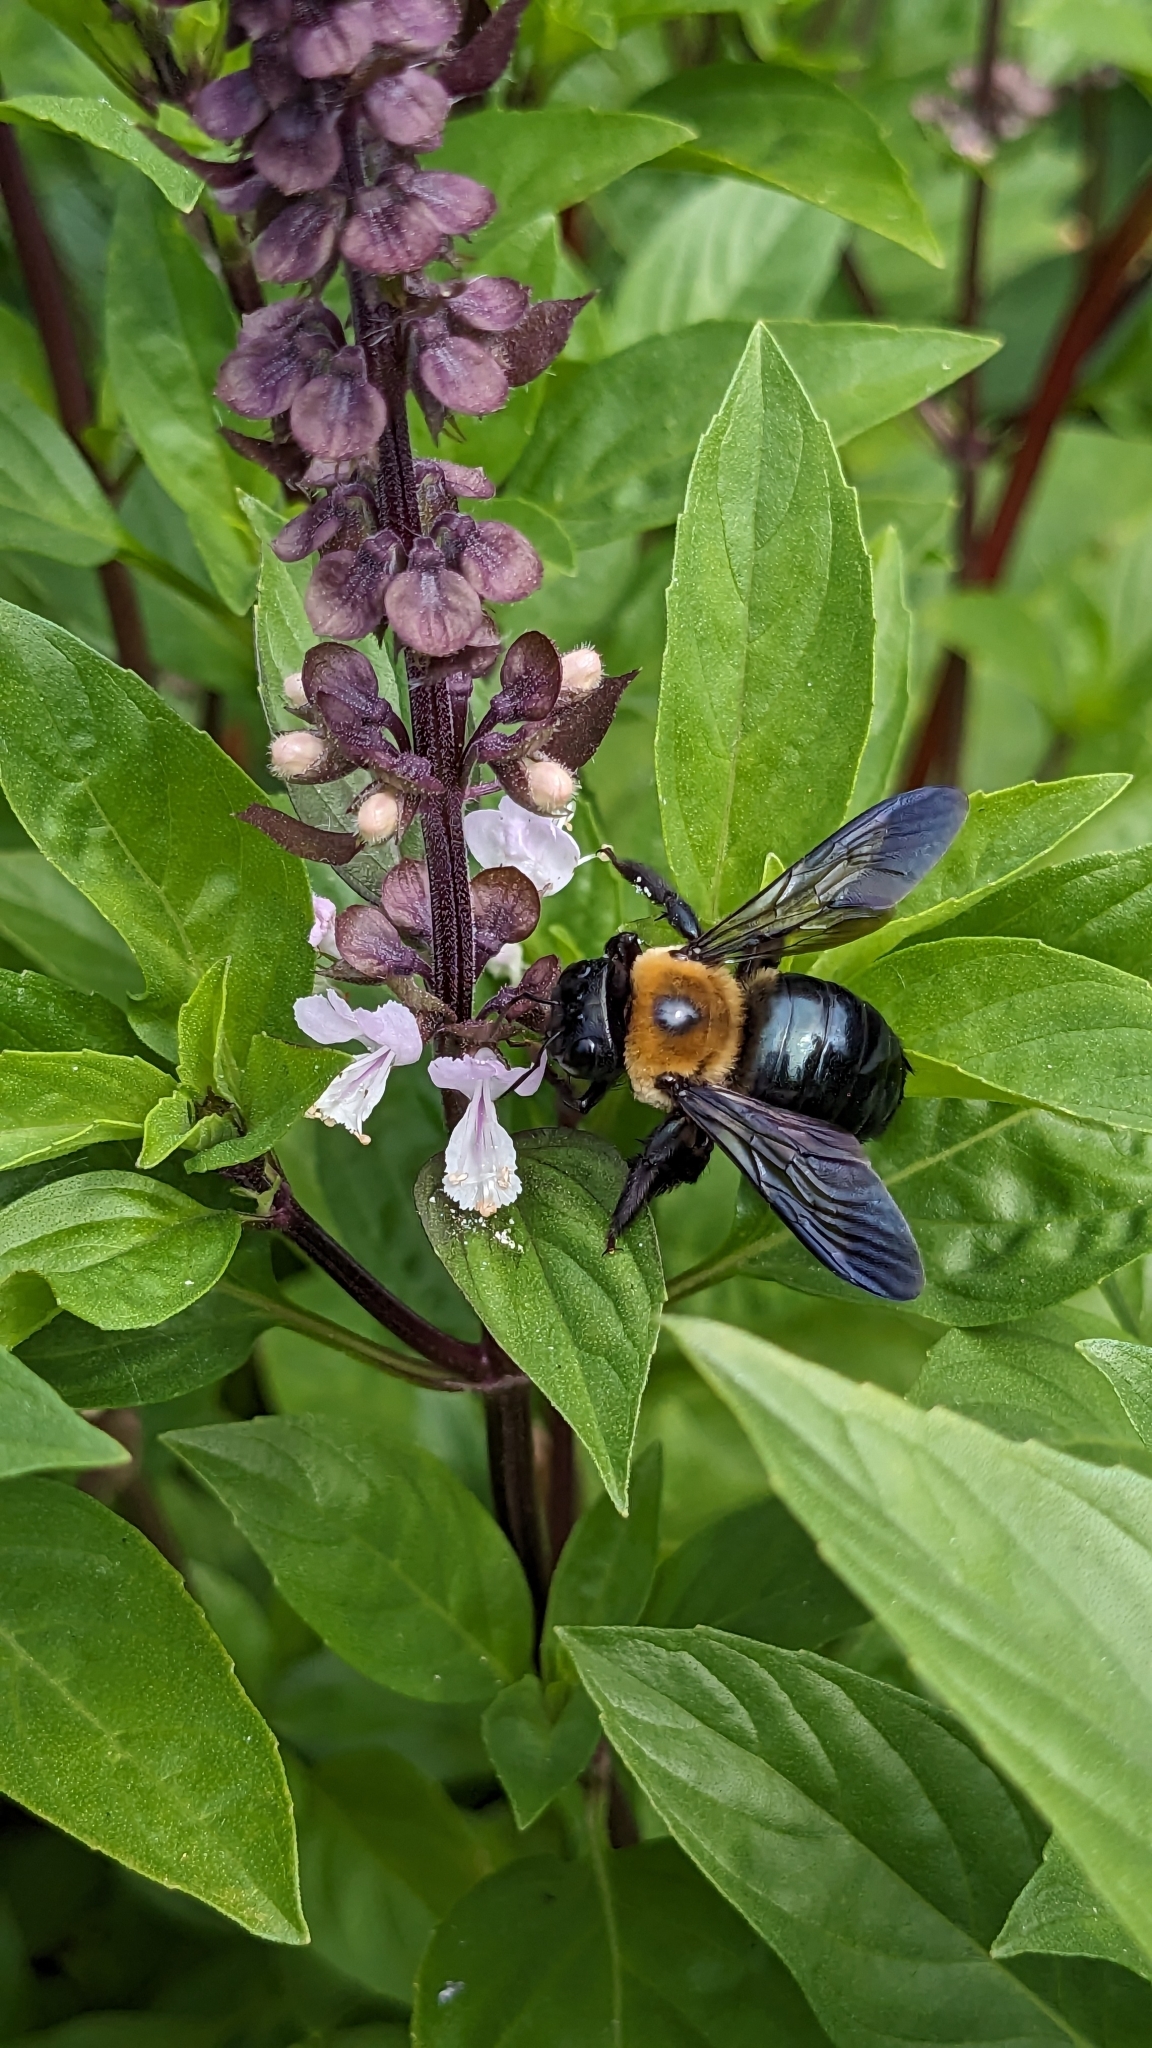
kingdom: Animalia
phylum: Arthropoda
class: Insecta
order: Hymenoptera
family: Apidae
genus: Xylocopa
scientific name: Xylocopa virginica
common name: Carpenter bee
